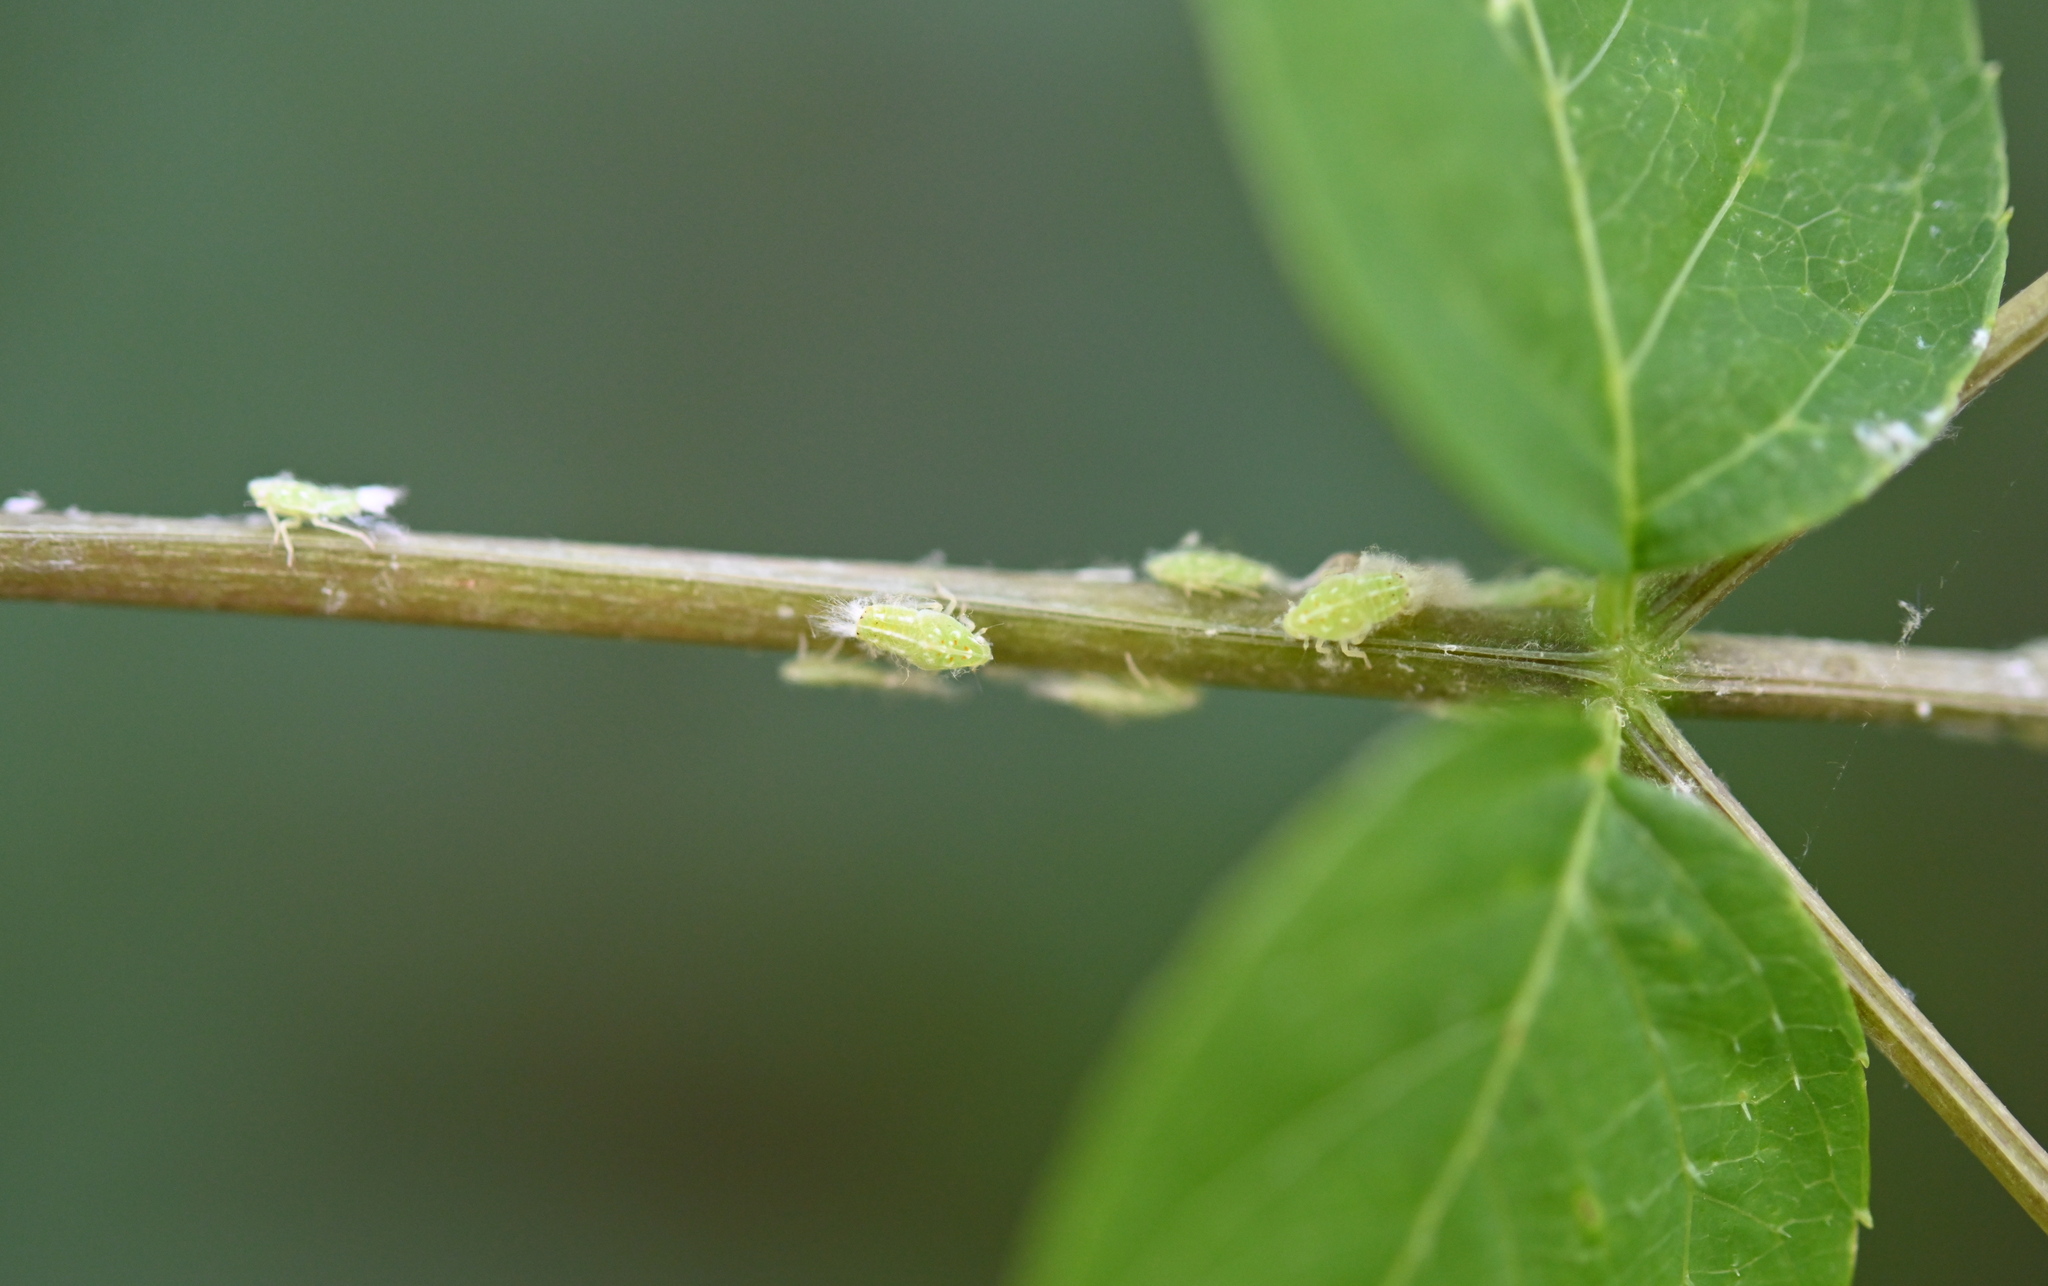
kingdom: Animalia
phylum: Arthropoda
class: Insecta
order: Hemiptera
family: Flatidae
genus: Ormenoides
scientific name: Ormenoides venusta
